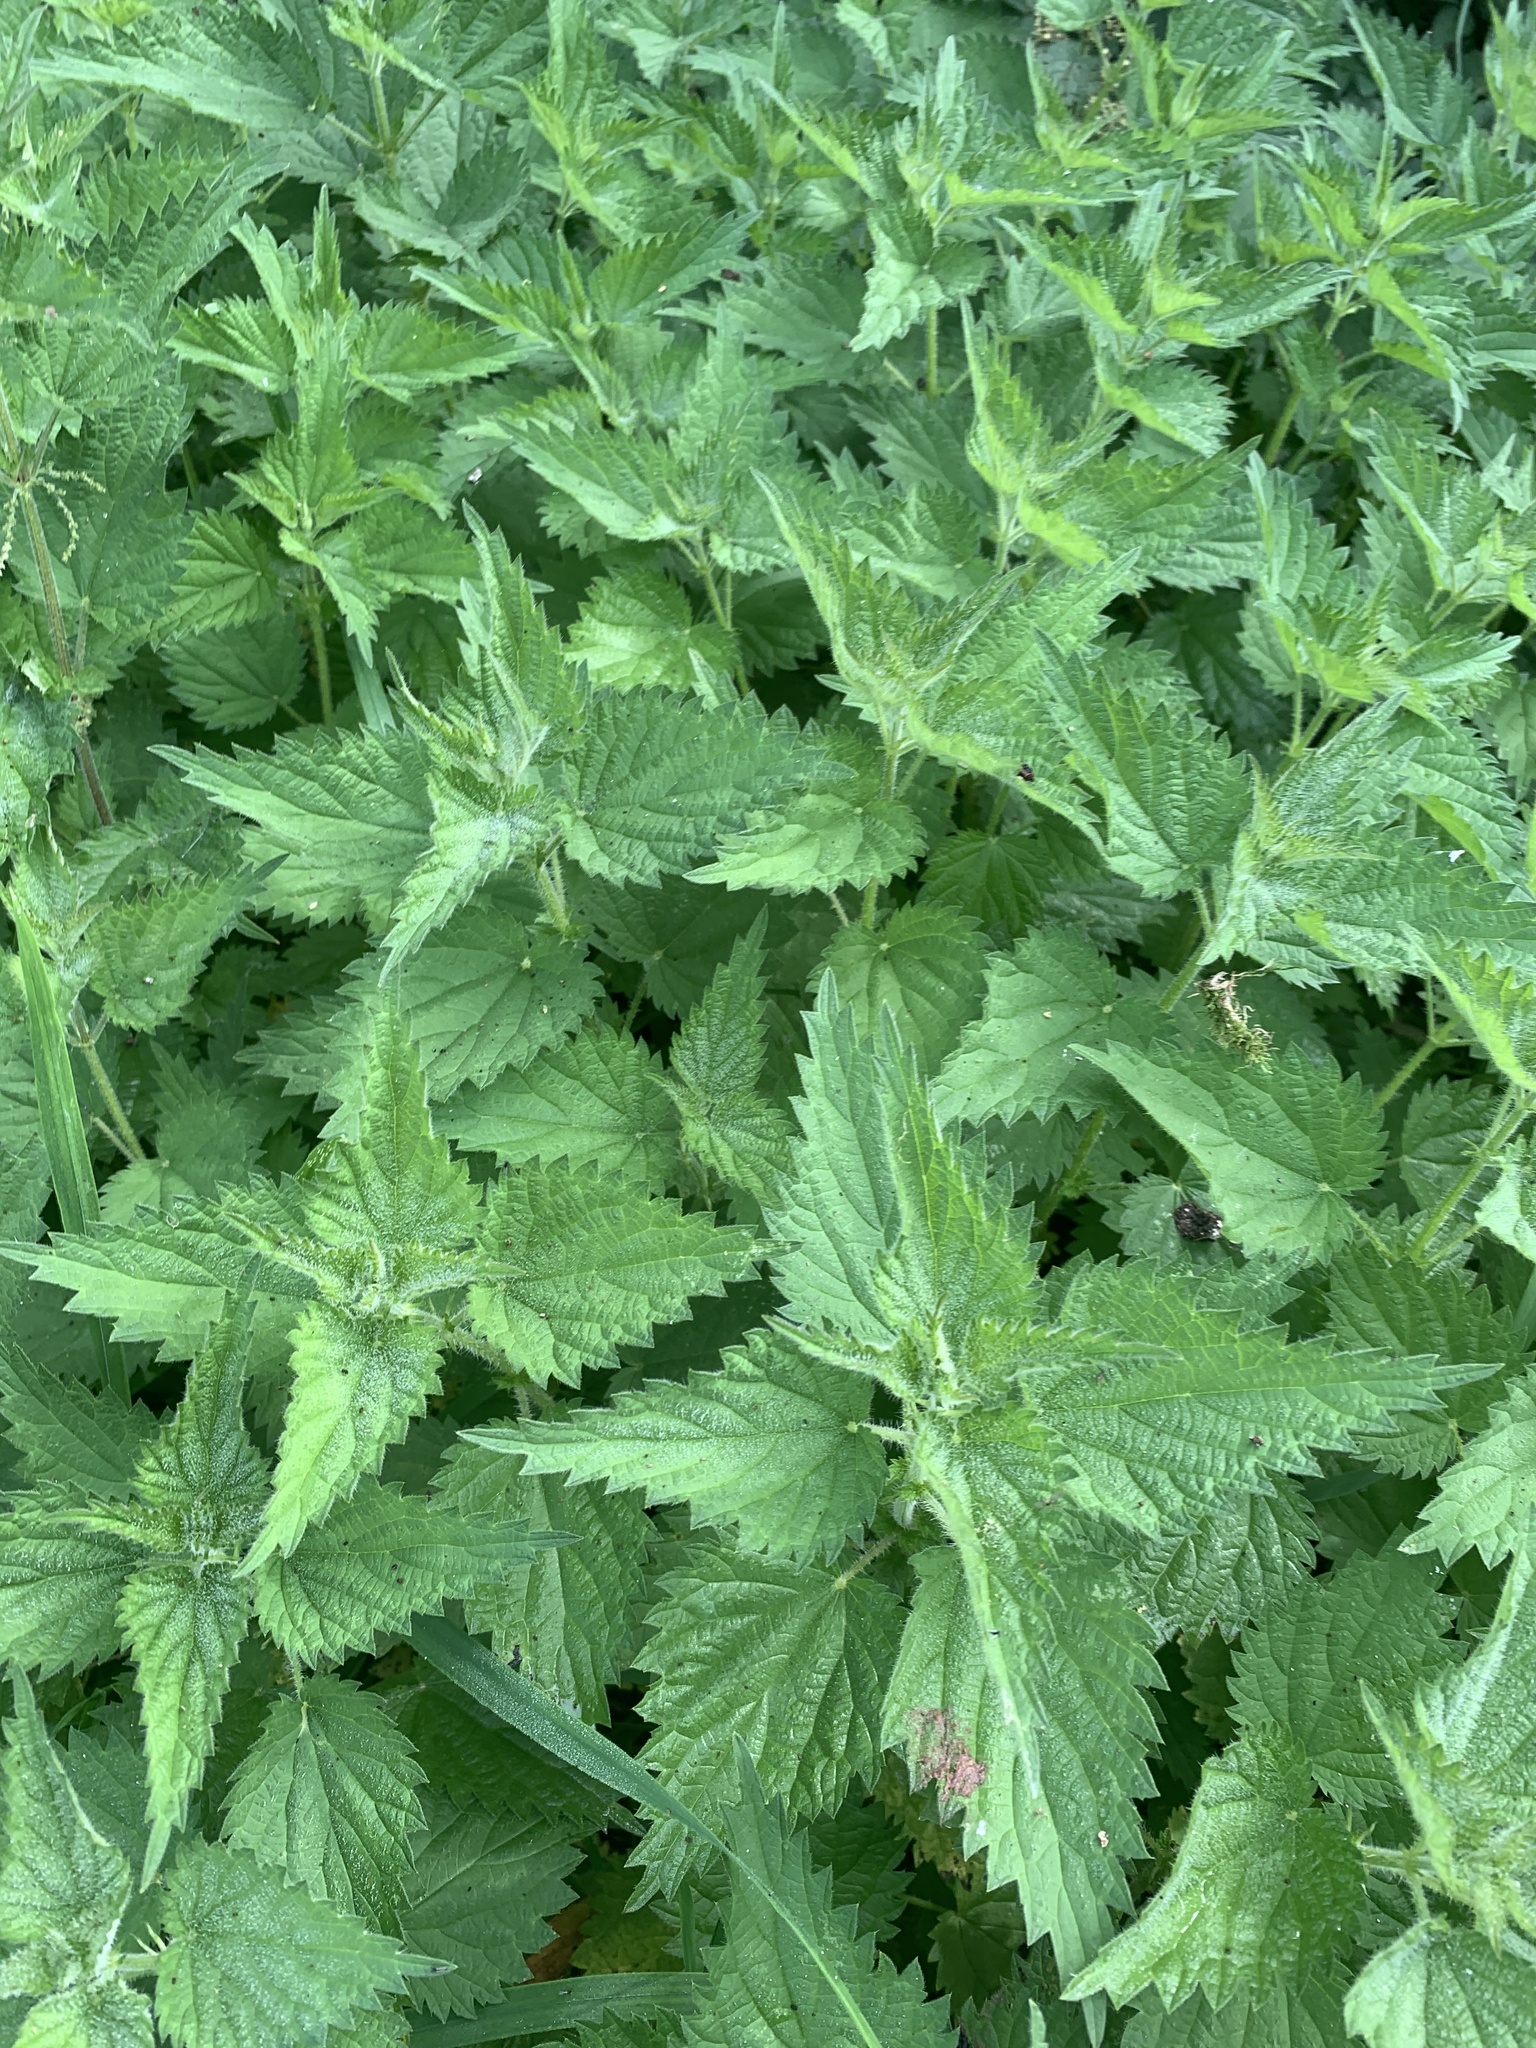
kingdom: Plantae
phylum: Tracheophyta
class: Magnoliopsida
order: Rosales
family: Urticaceae
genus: Urtica
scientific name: Urtica dioica
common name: Common nettle
